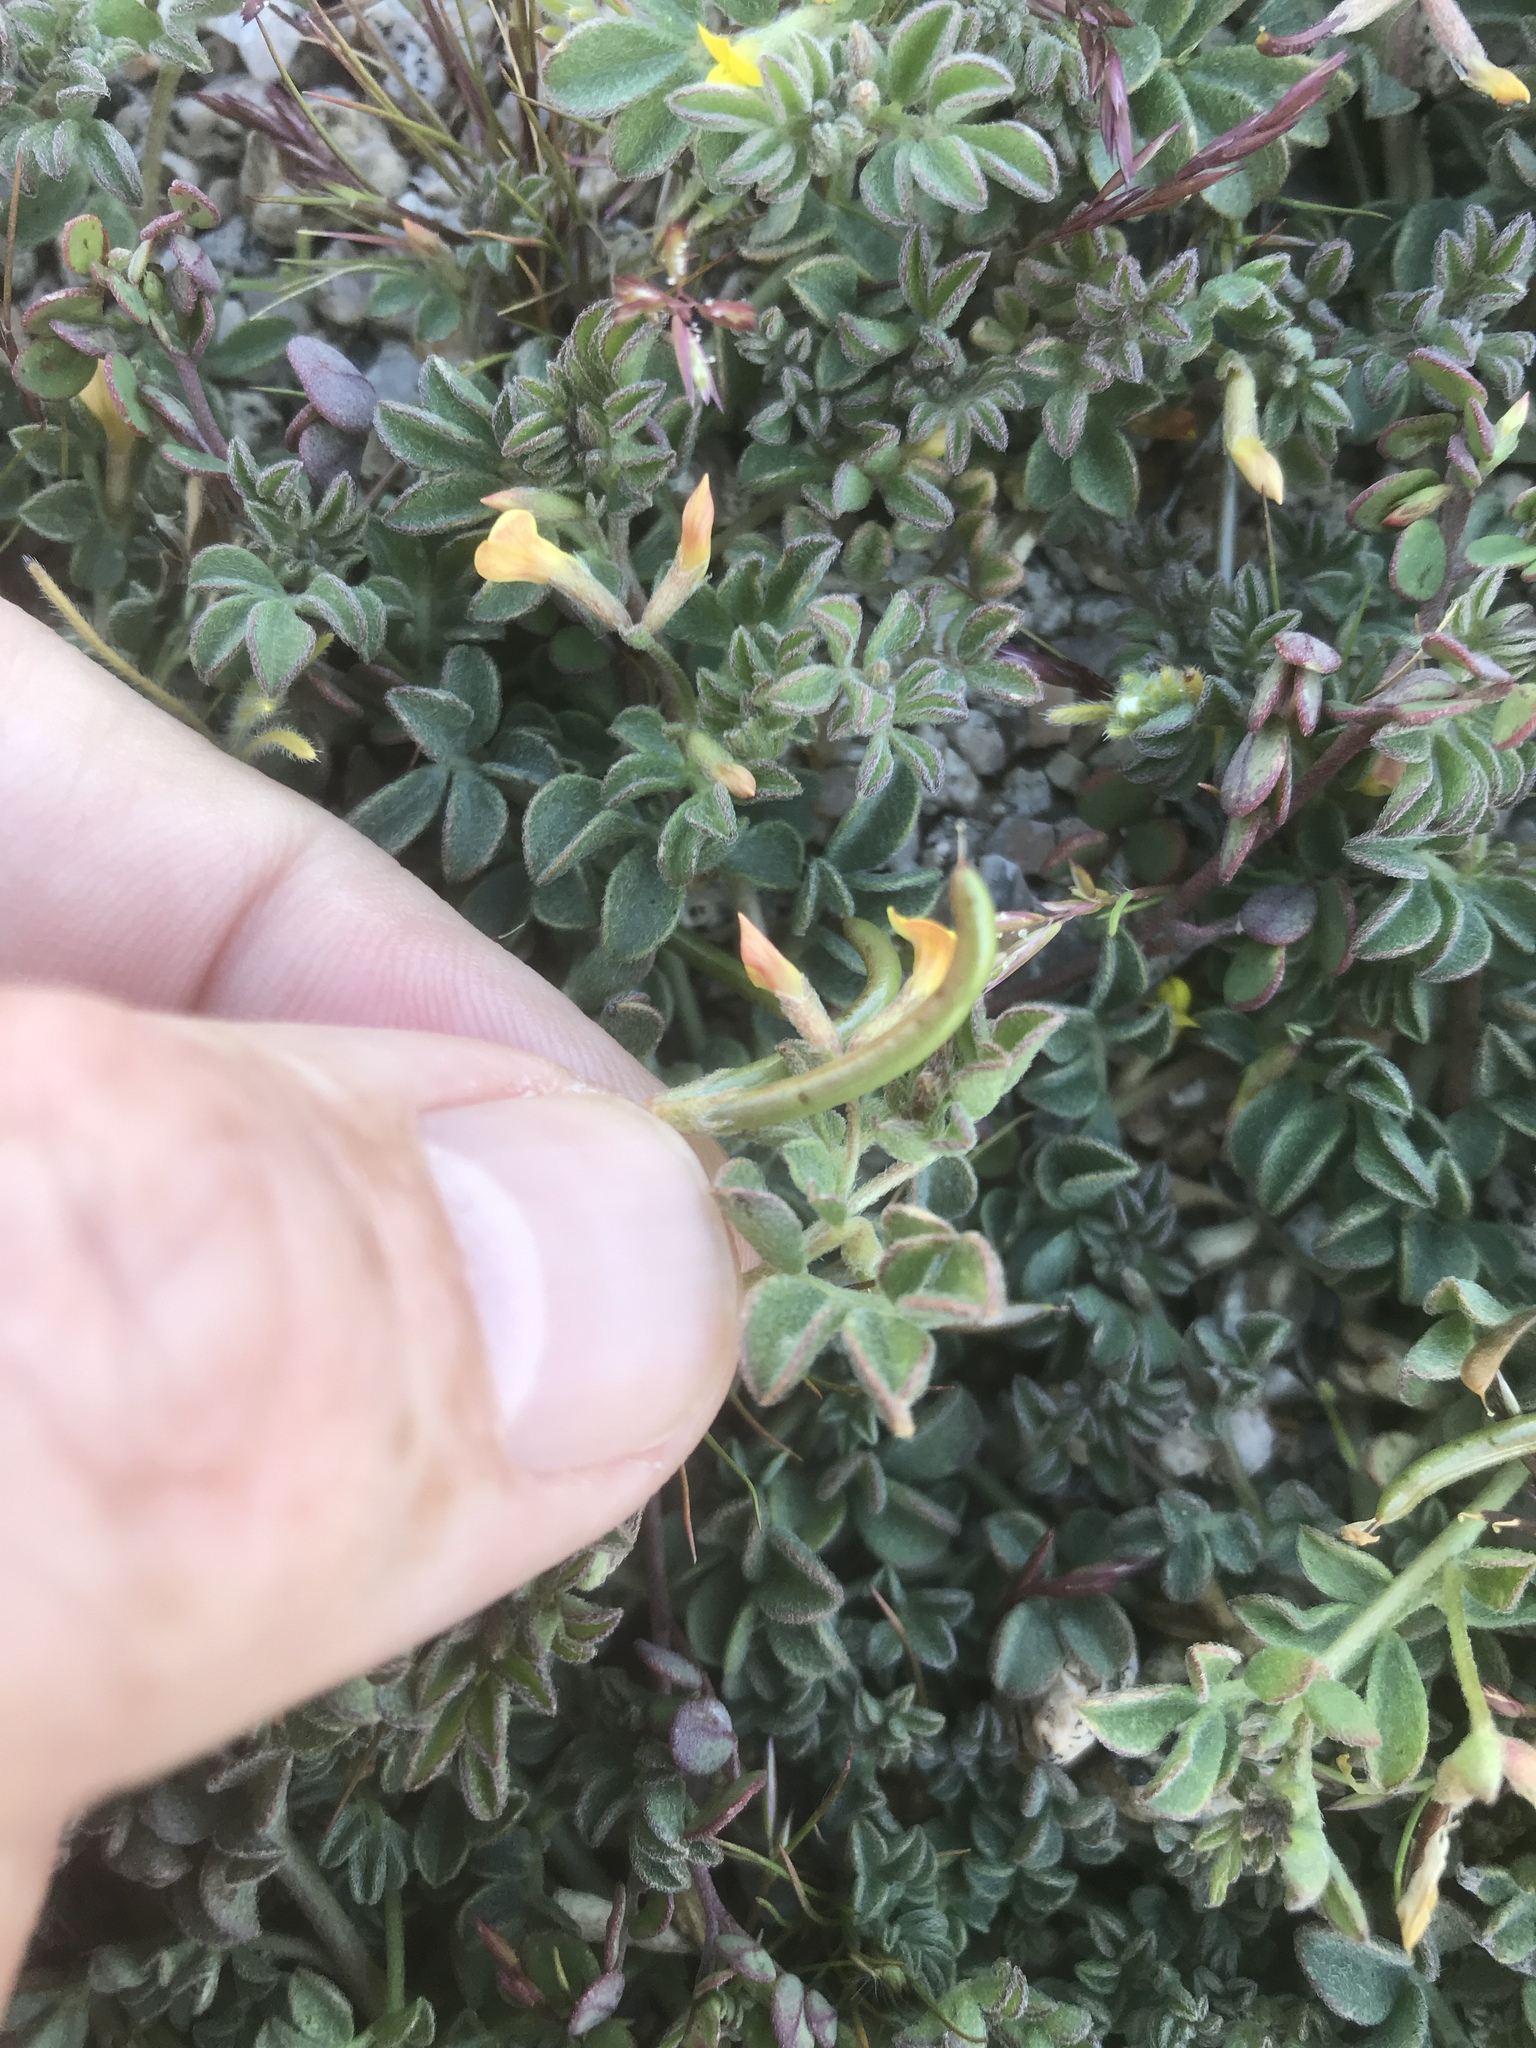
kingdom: Plantae
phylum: Tracheophyta
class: Magnoliopsida
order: Fabales
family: Fabaceae
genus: Acmispon
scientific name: Acmispon strigosus
